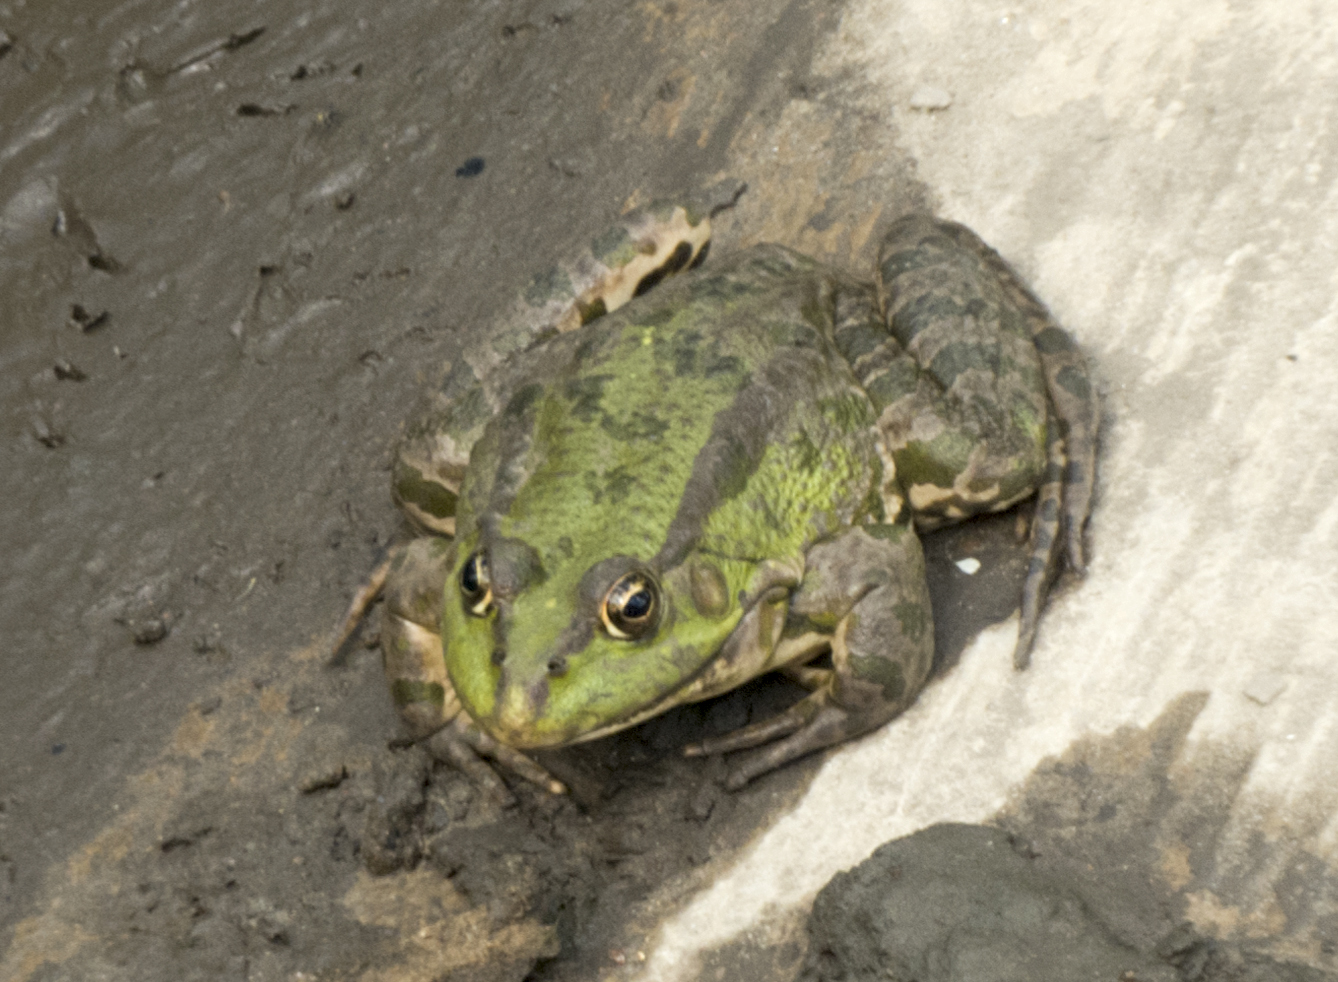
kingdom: Animalia
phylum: Chordata
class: Amphibia
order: Anura
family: Ranidae
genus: Pelophylax
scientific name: Pelophylax ridibundus
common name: Marsh frog
